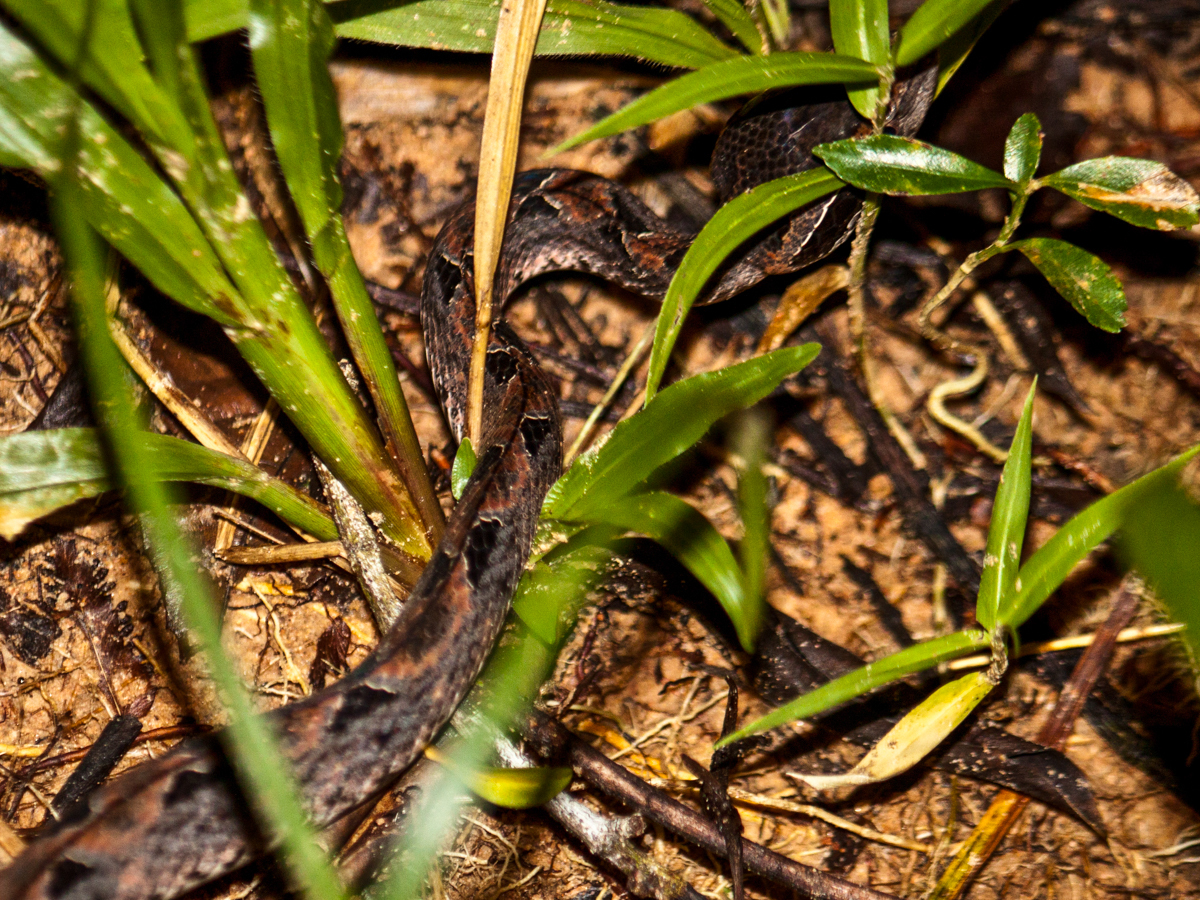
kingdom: Animalia
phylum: Chordata
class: Squamata
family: Viperidae
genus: Calloselasma
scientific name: Calloselasma rhodostoma
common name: Malayan pit viper
